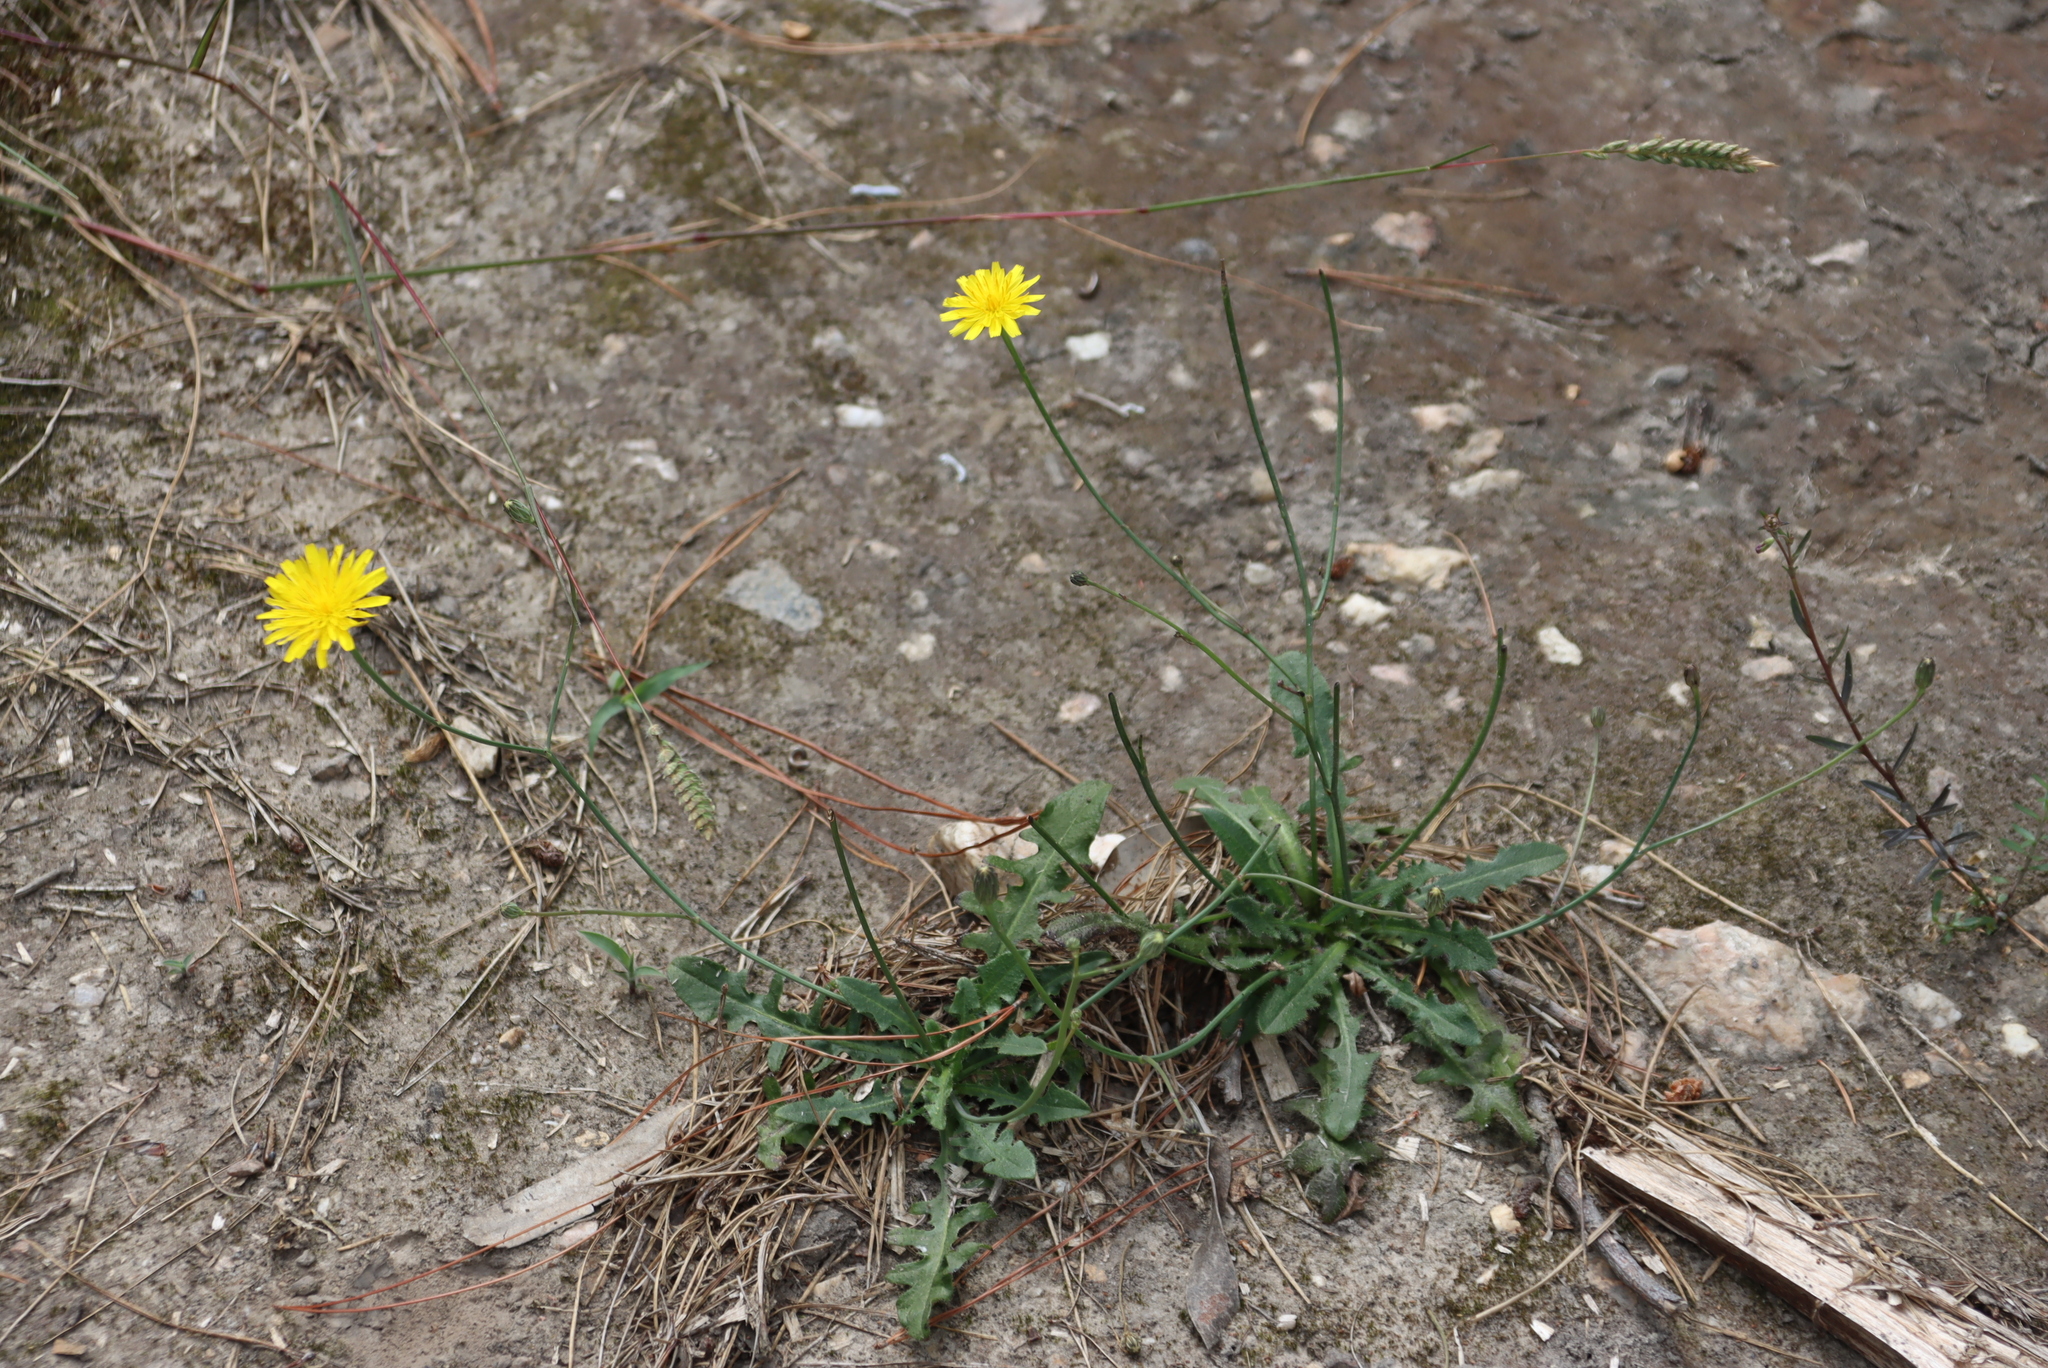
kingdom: Plantae
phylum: Tracheophyta
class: Magnoliopsida
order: Asterales
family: Asteraceae
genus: Hypochaeris
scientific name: Hypochaeris radicata
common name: Flatweed
